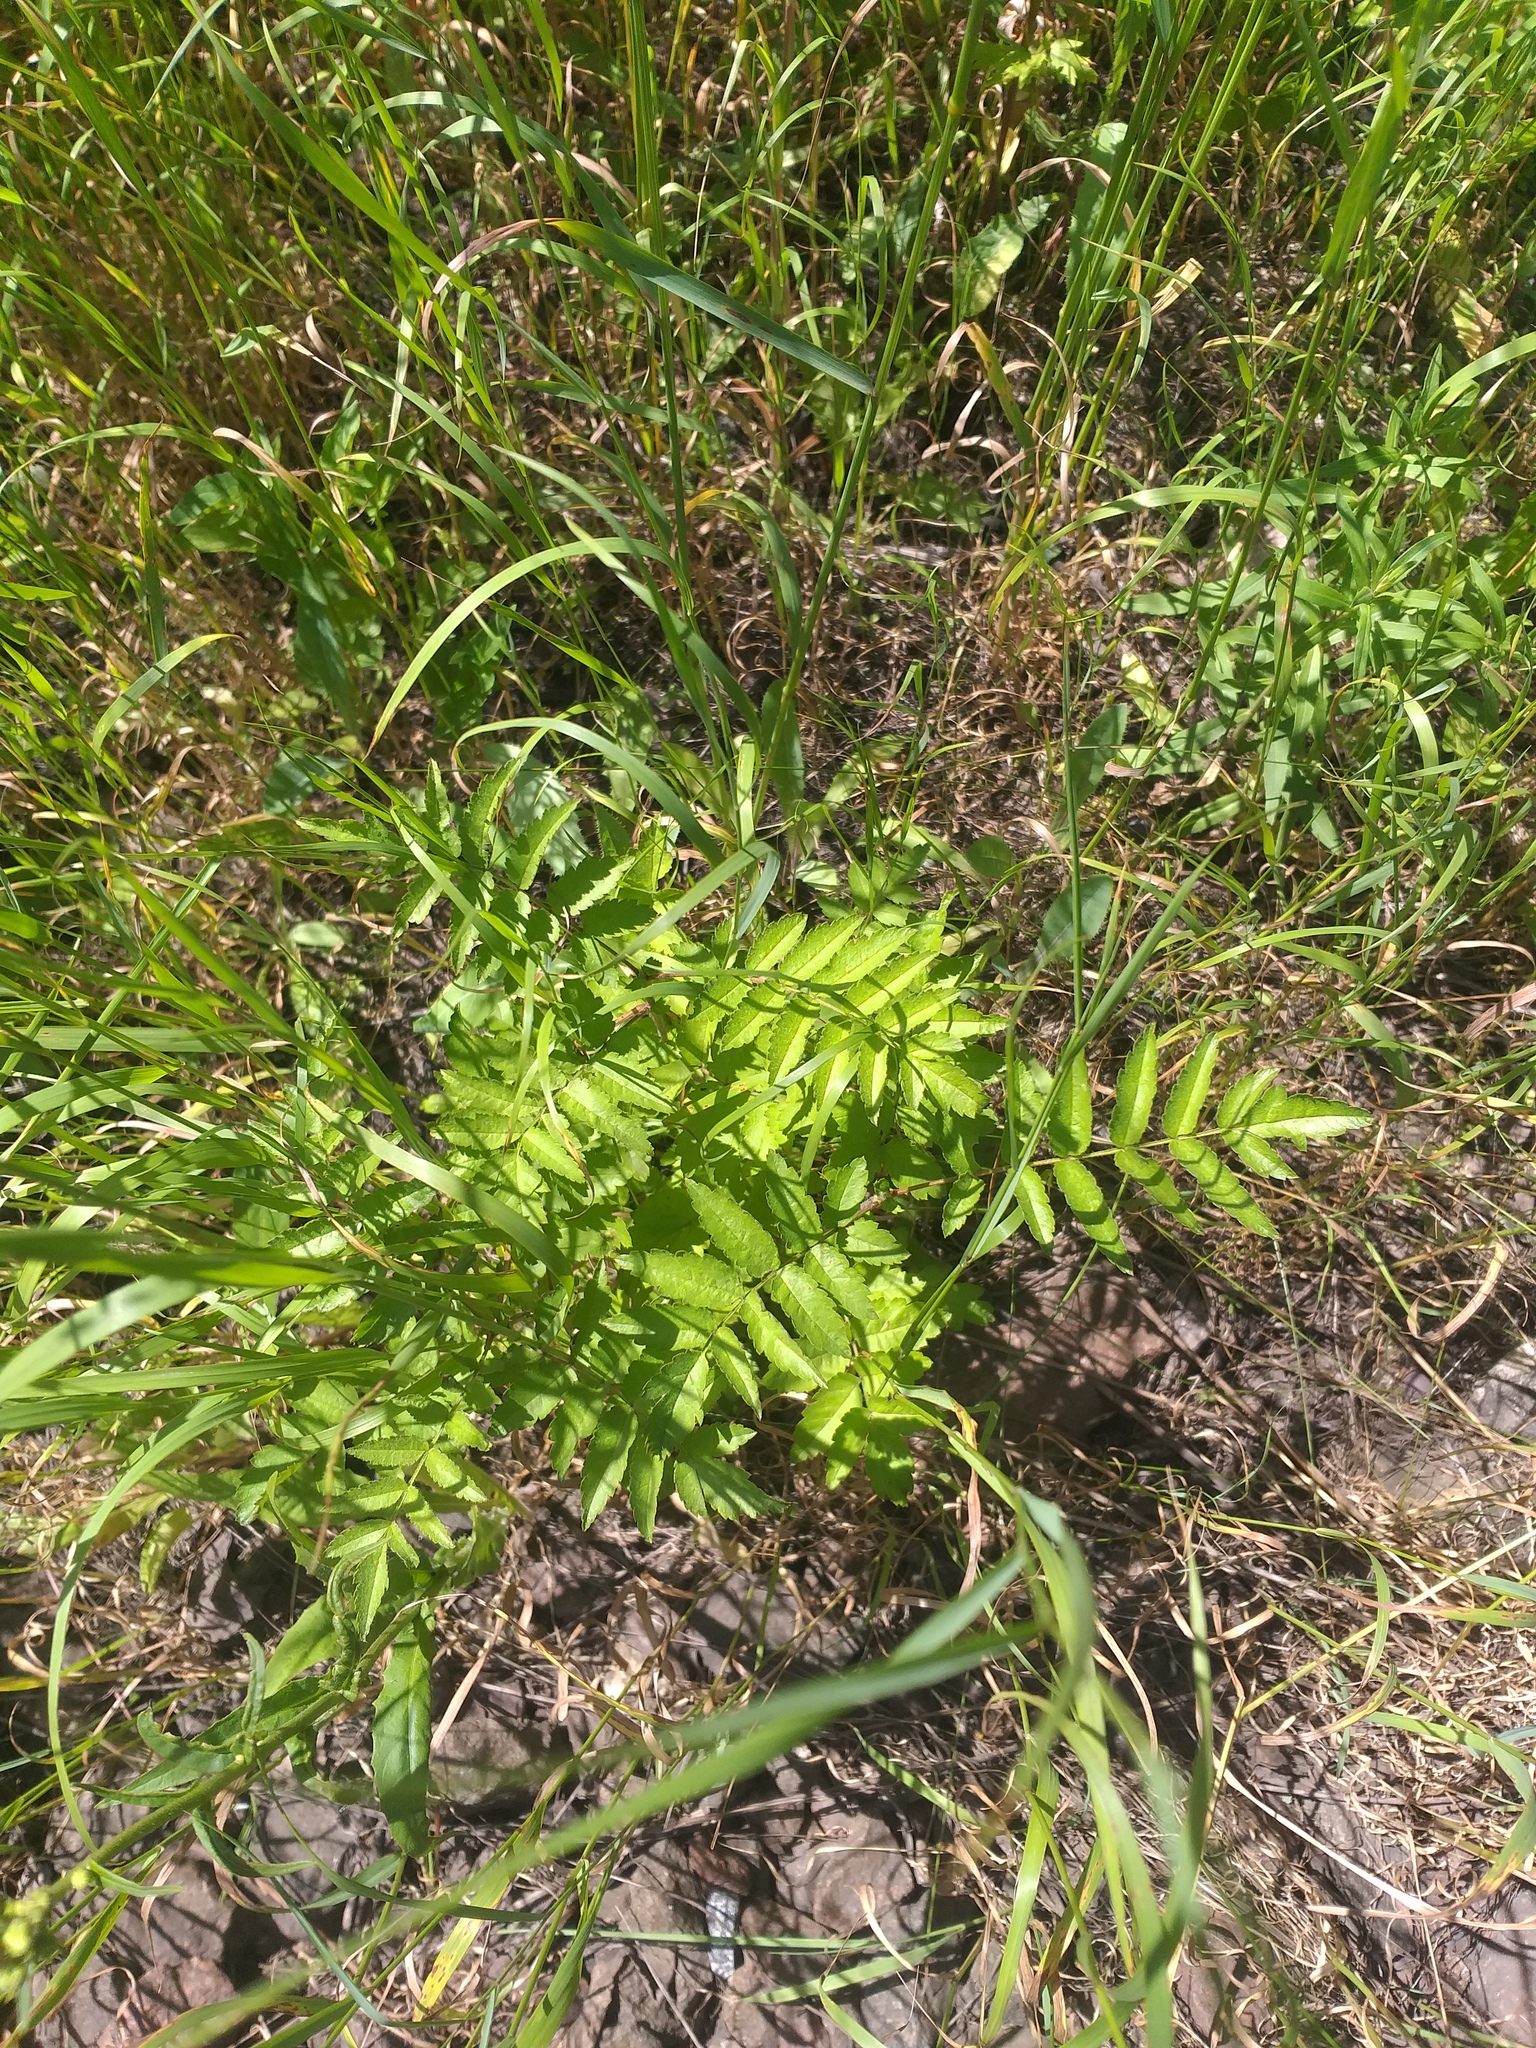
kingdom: Plantae
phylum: Tracheophyta
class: Magnoliopsida
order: Rosales
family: Rosaceae
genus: Sorbus
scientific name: Sorbus aucuparia
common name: Rowan
